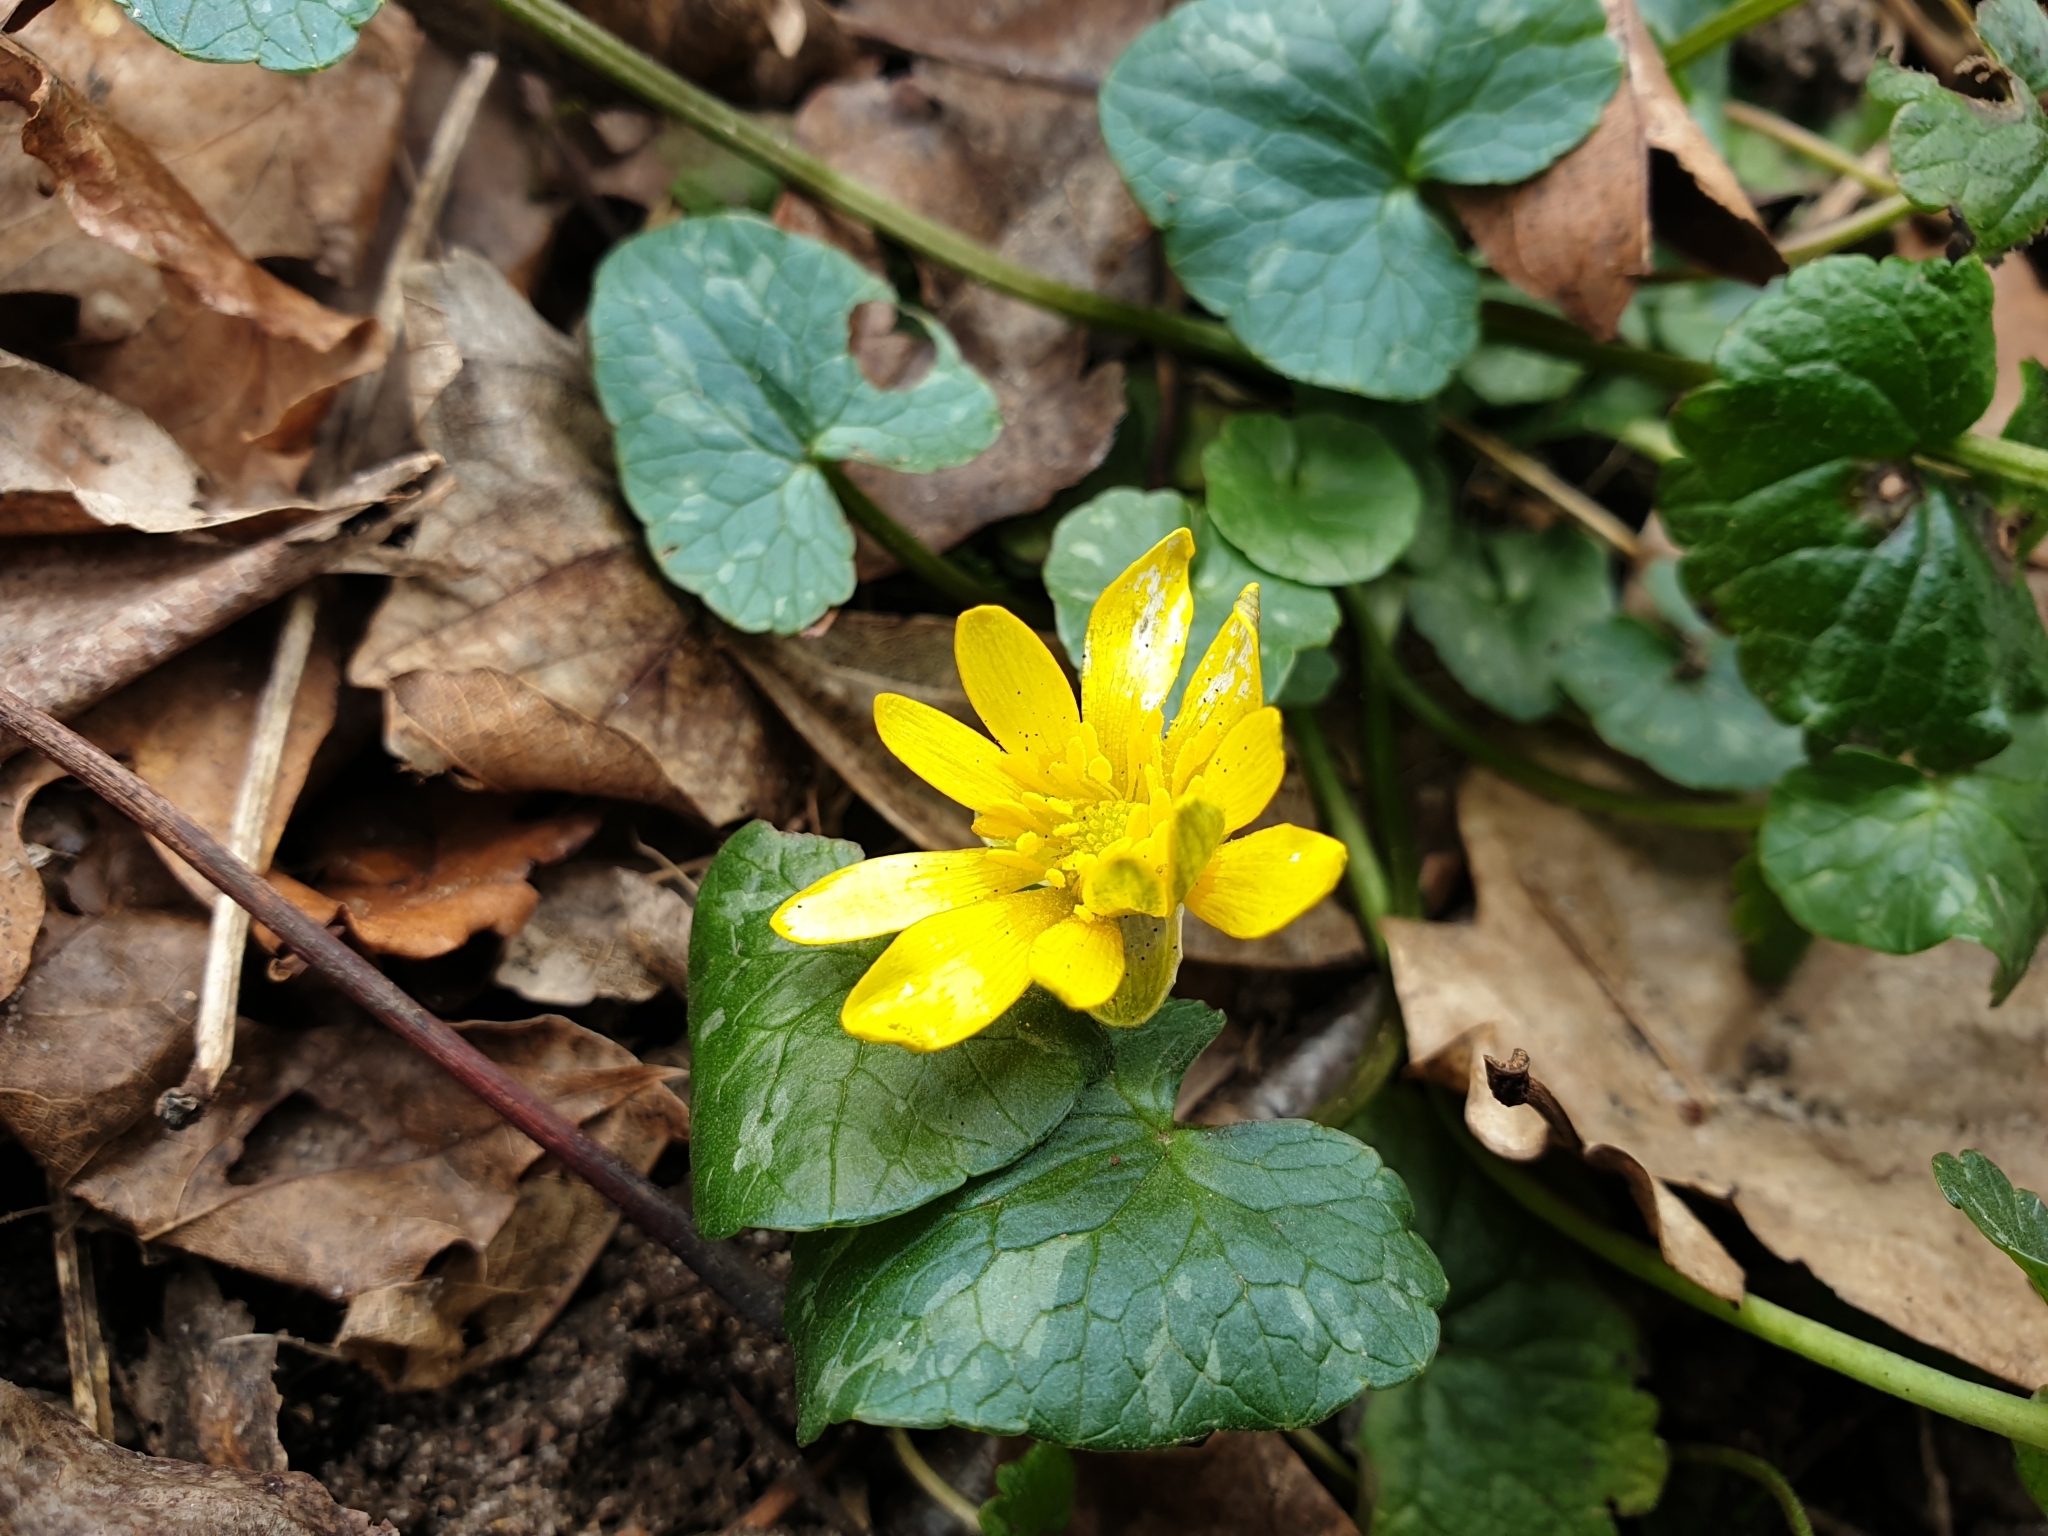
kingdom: Plantae
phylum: Tracheophyta
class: Magnoliopsida
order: Ranunculales
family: Ranunculaceae
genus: Ficaria
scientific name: Ficaria verna
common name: Lesser celandine
